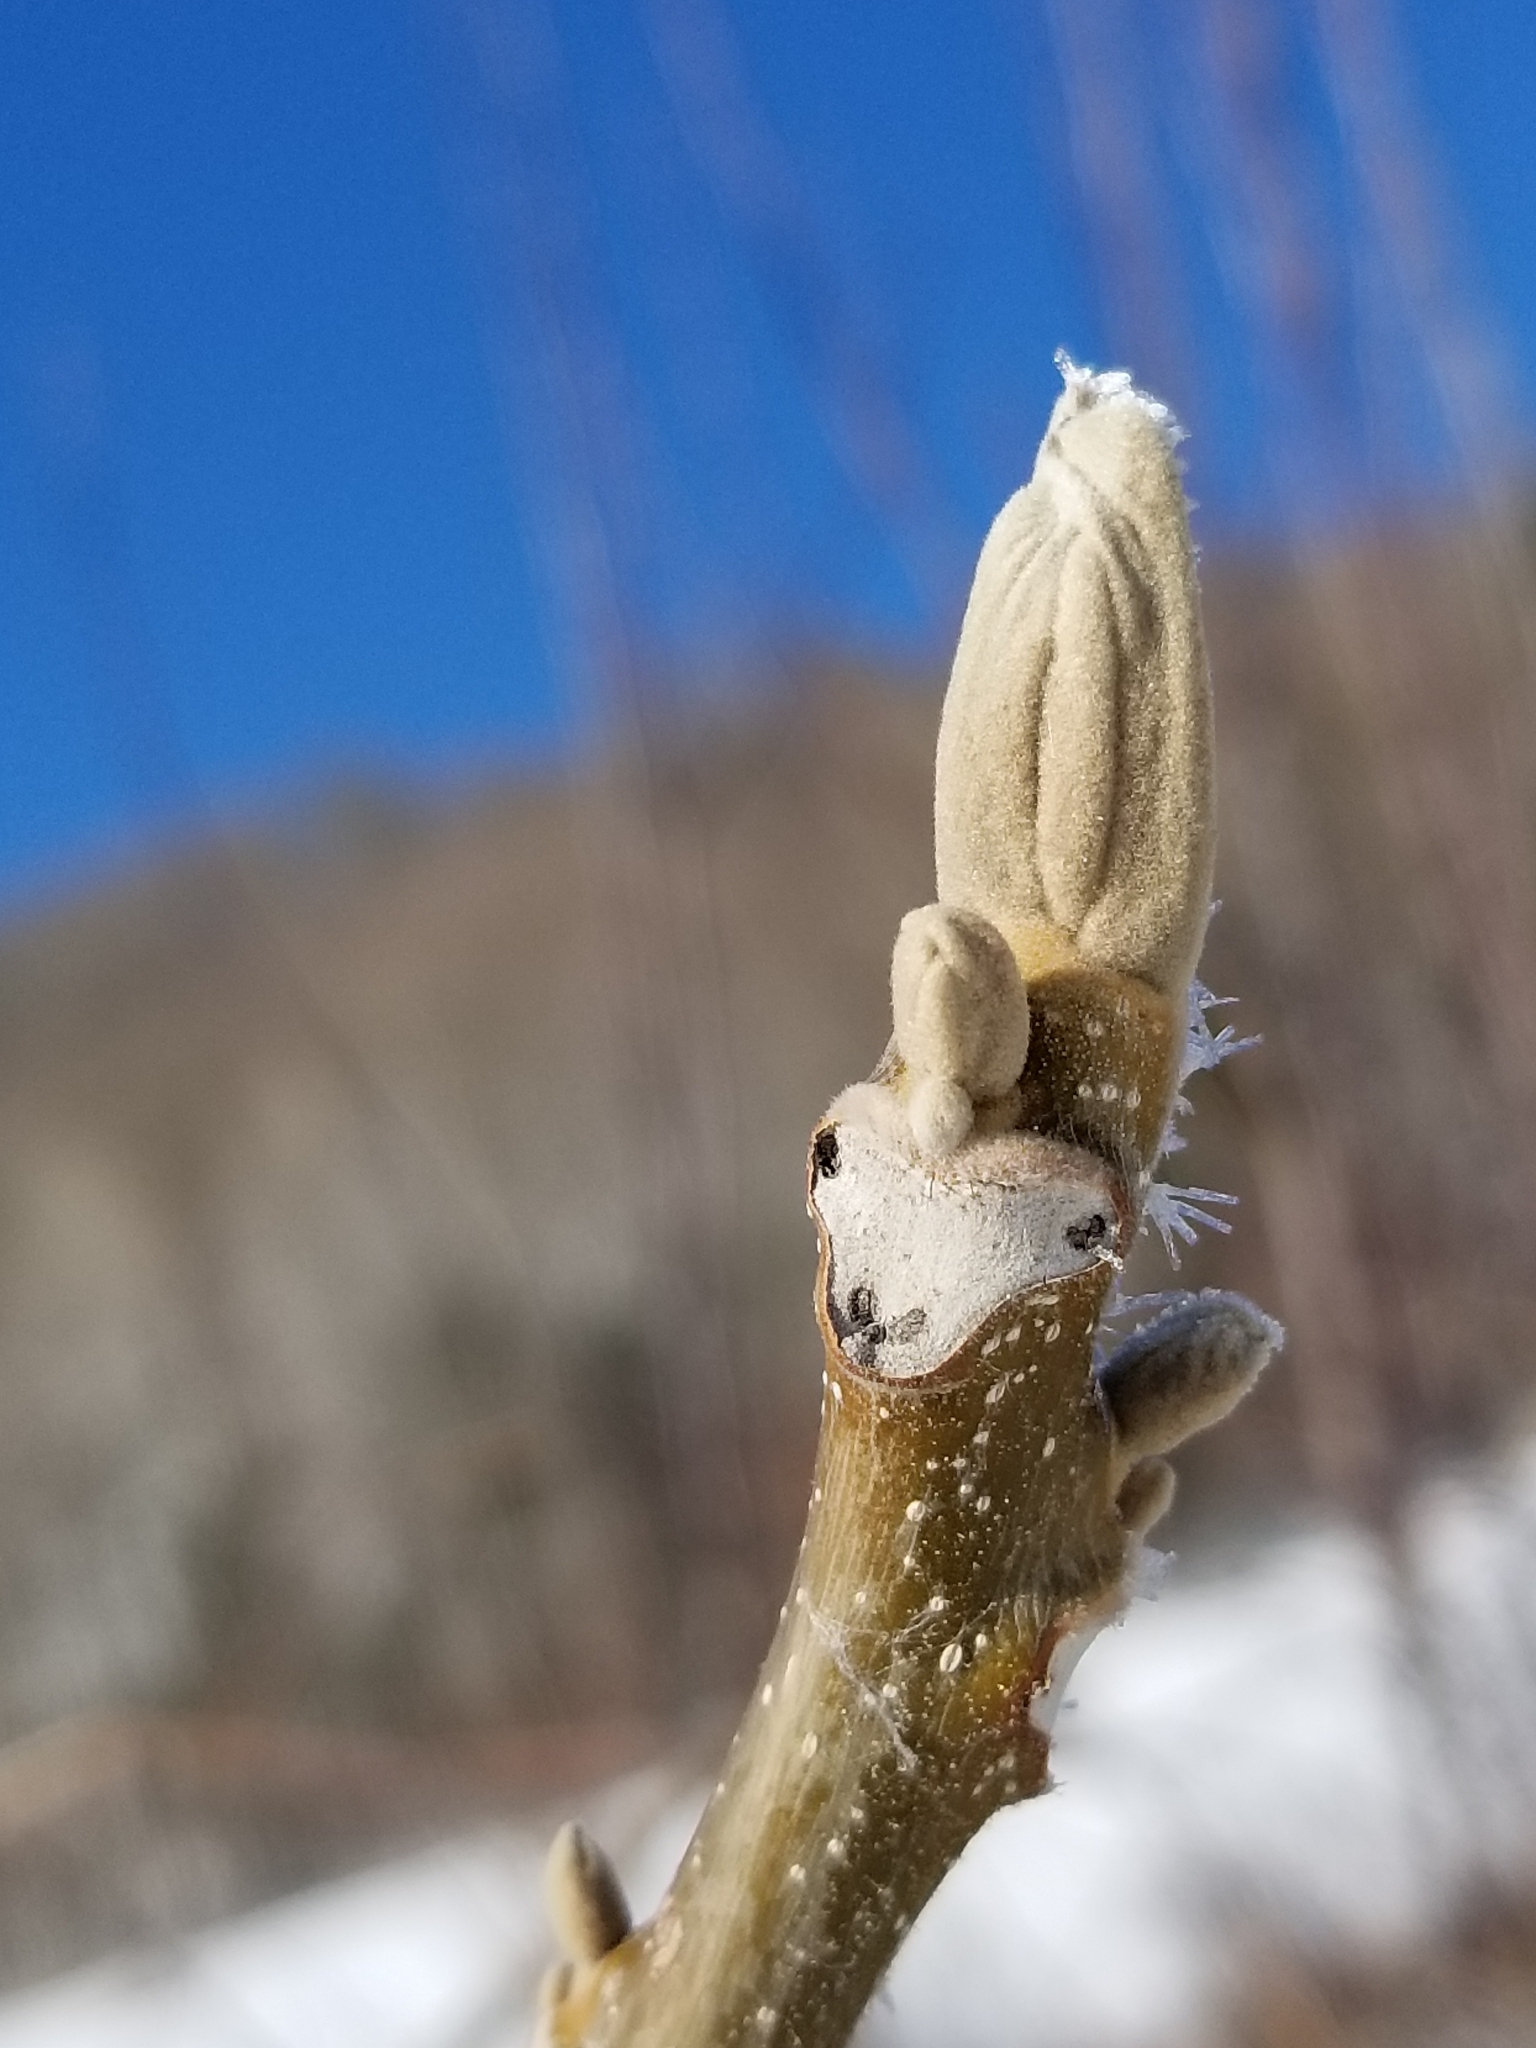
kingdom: Plantae
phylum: Tracheophyta
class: Magnoliopsida
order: Fagales
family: Juglandaceae
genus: Juglans
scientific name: Juglans cinerea
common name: Butternut
